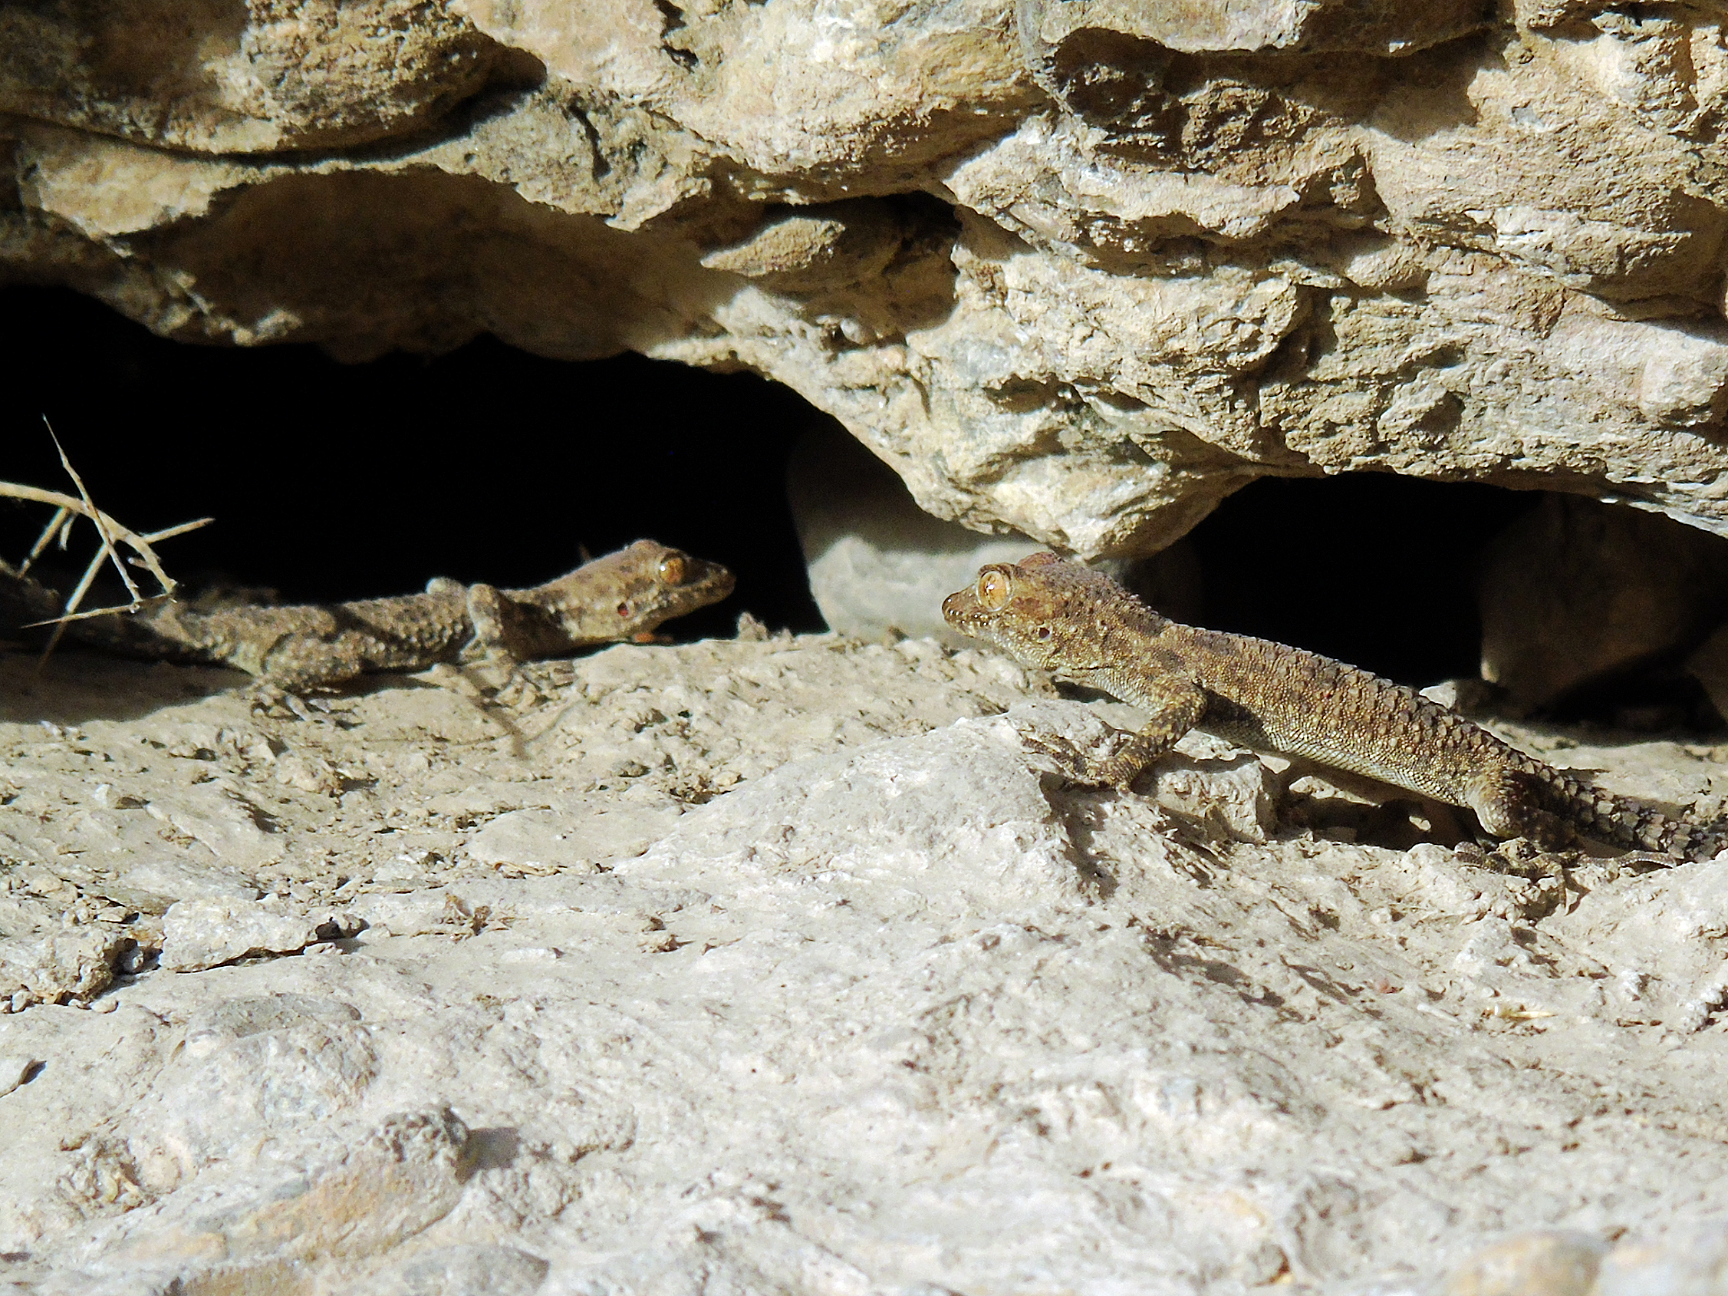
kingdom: Animalia
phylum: Chordata
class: Squamata
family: Gekkonidae
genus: Tenuidactylus
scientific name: Tenuidactylus fedtschenkoi
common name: Turkestan thin-toed gecko
